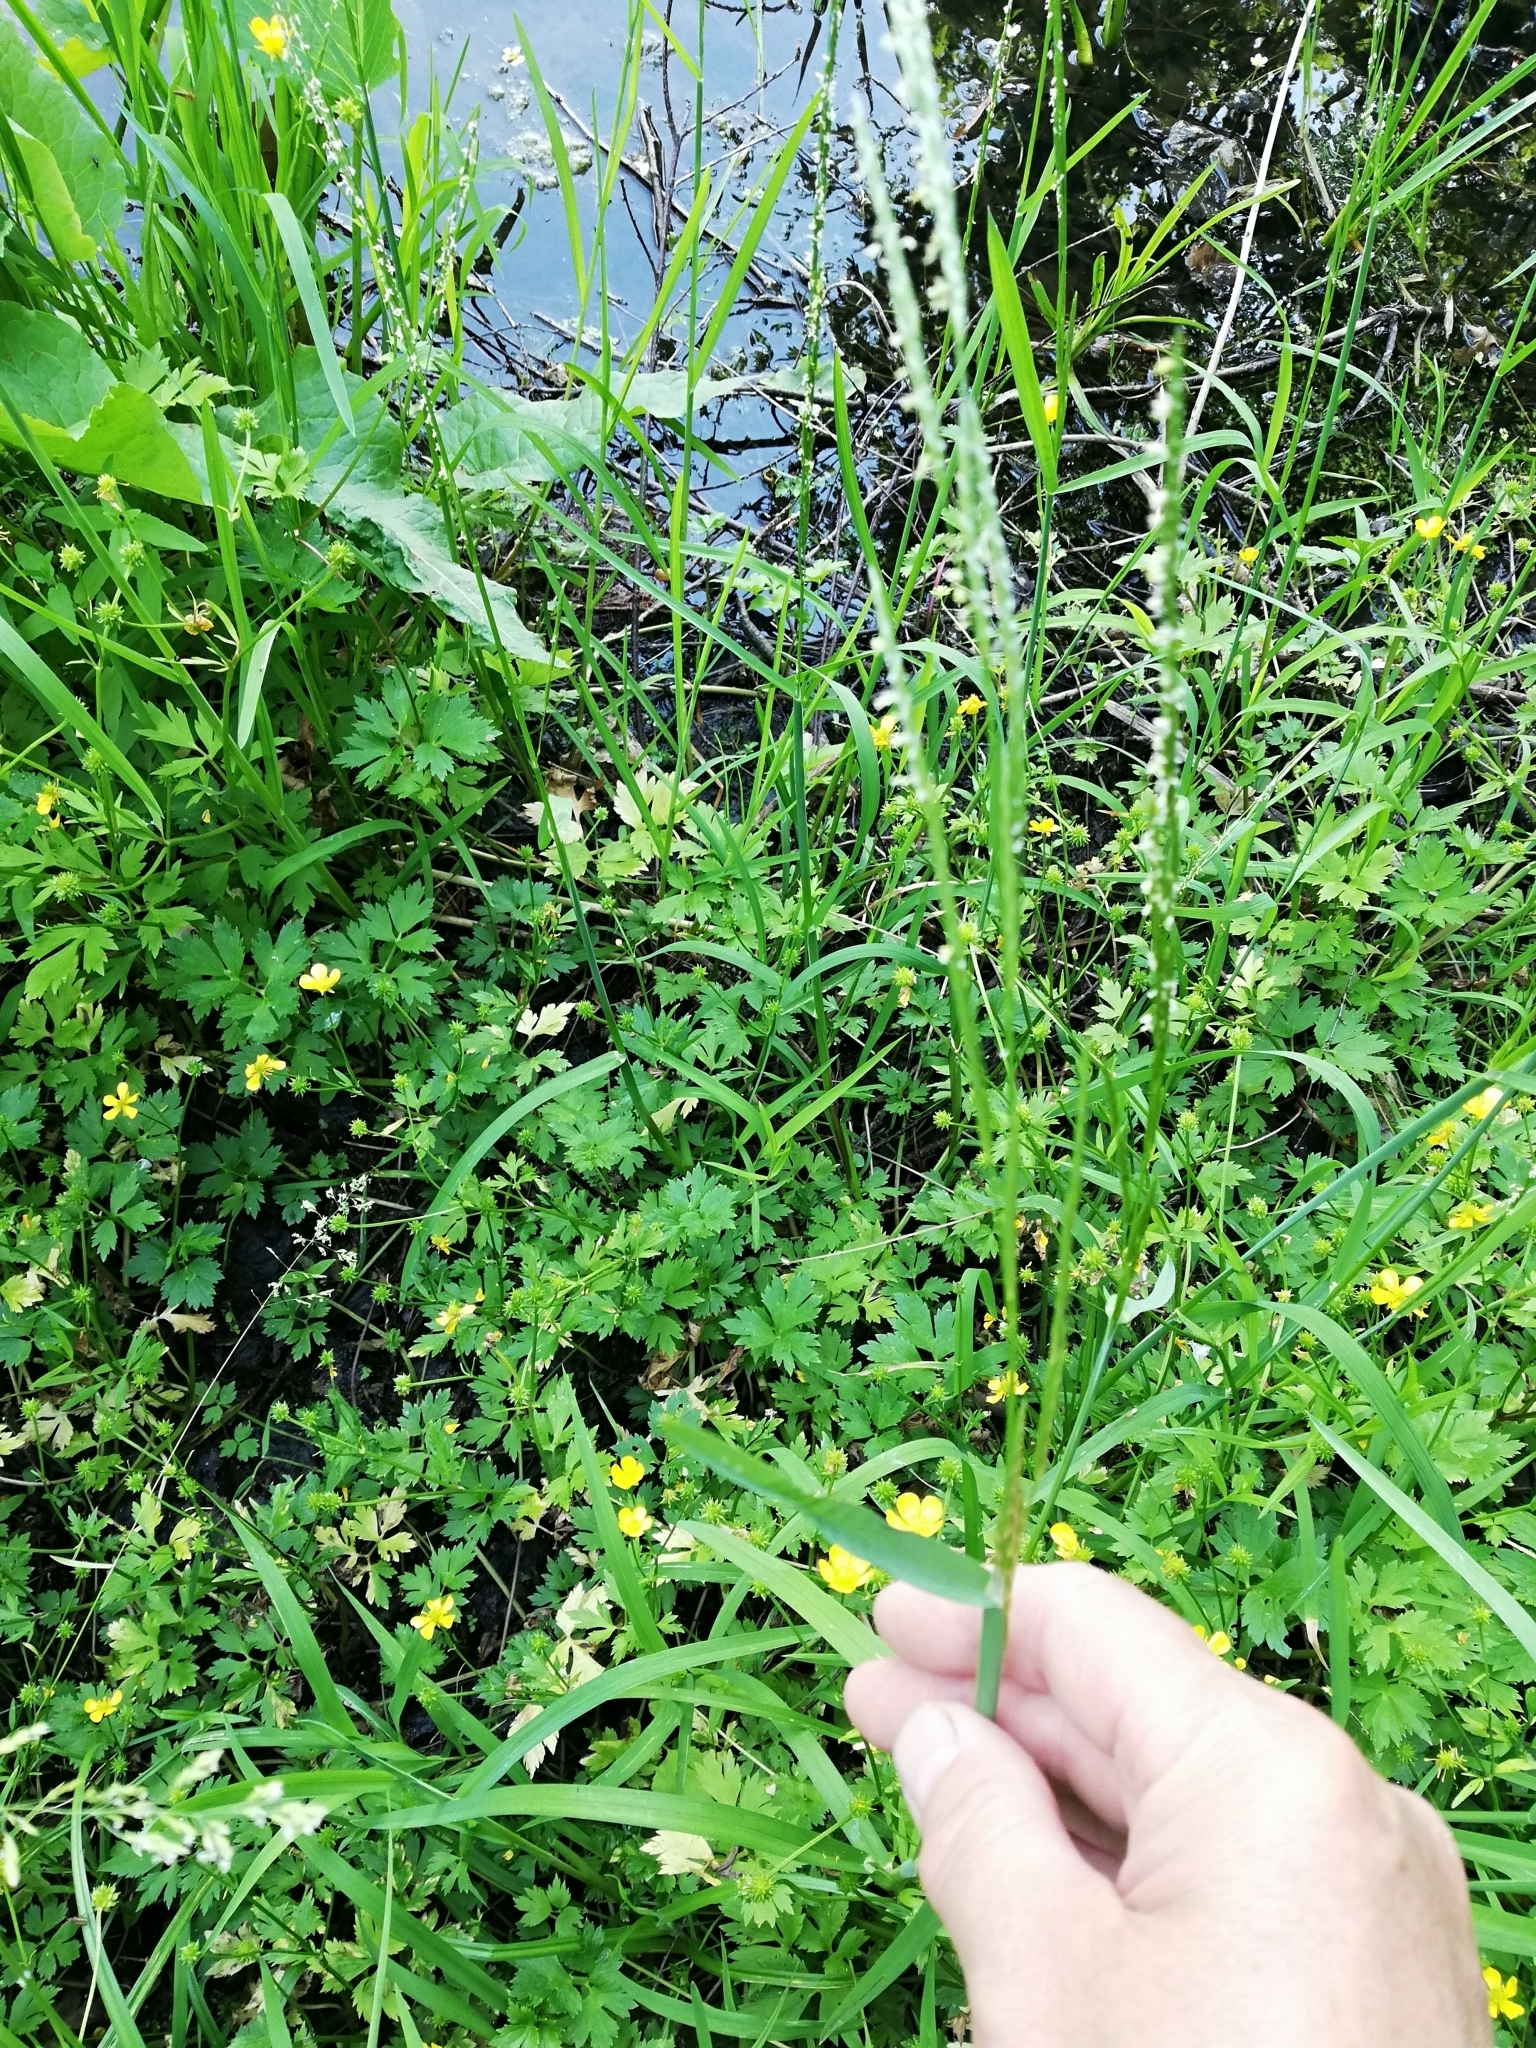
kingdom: Plantae
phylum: Tracheophyta
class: Liliopsida
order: Poales
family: Poaceae
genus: Glyceria
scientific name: Glyceria fluitans
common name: Floating sweet-grass
